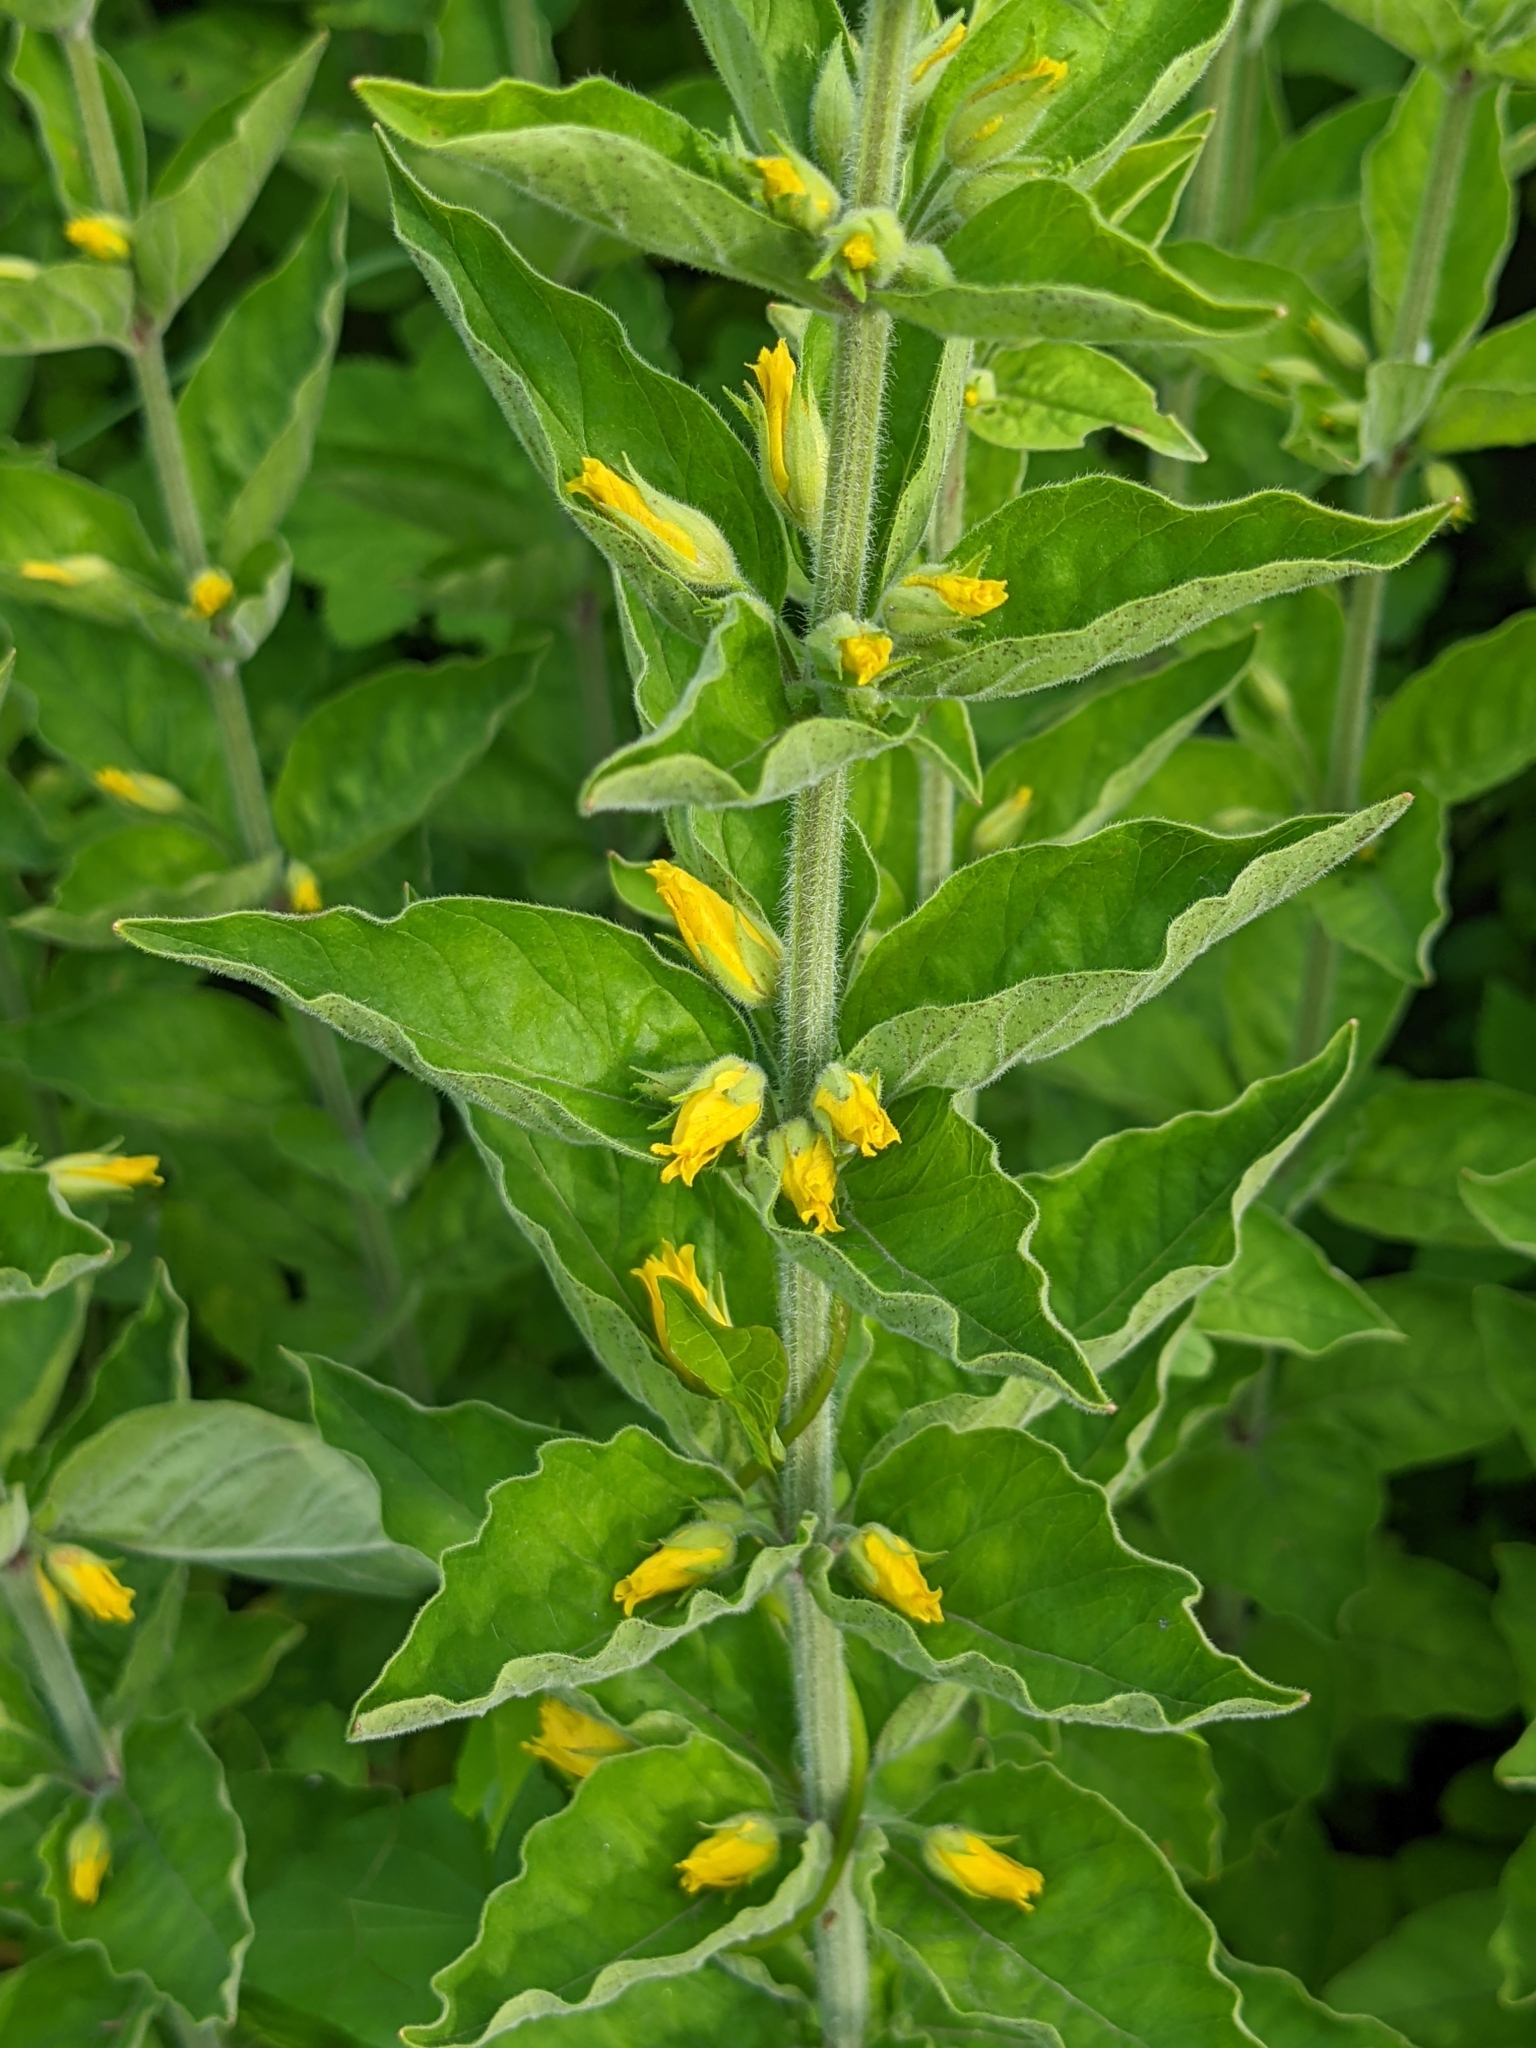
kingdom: Plantae
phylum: Tracheophyta
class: Magnoliopsida
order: Ericales
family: Primulaceae
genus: Lysimachia
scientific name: Lysimachia punctata
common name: Dotted loosestrife
